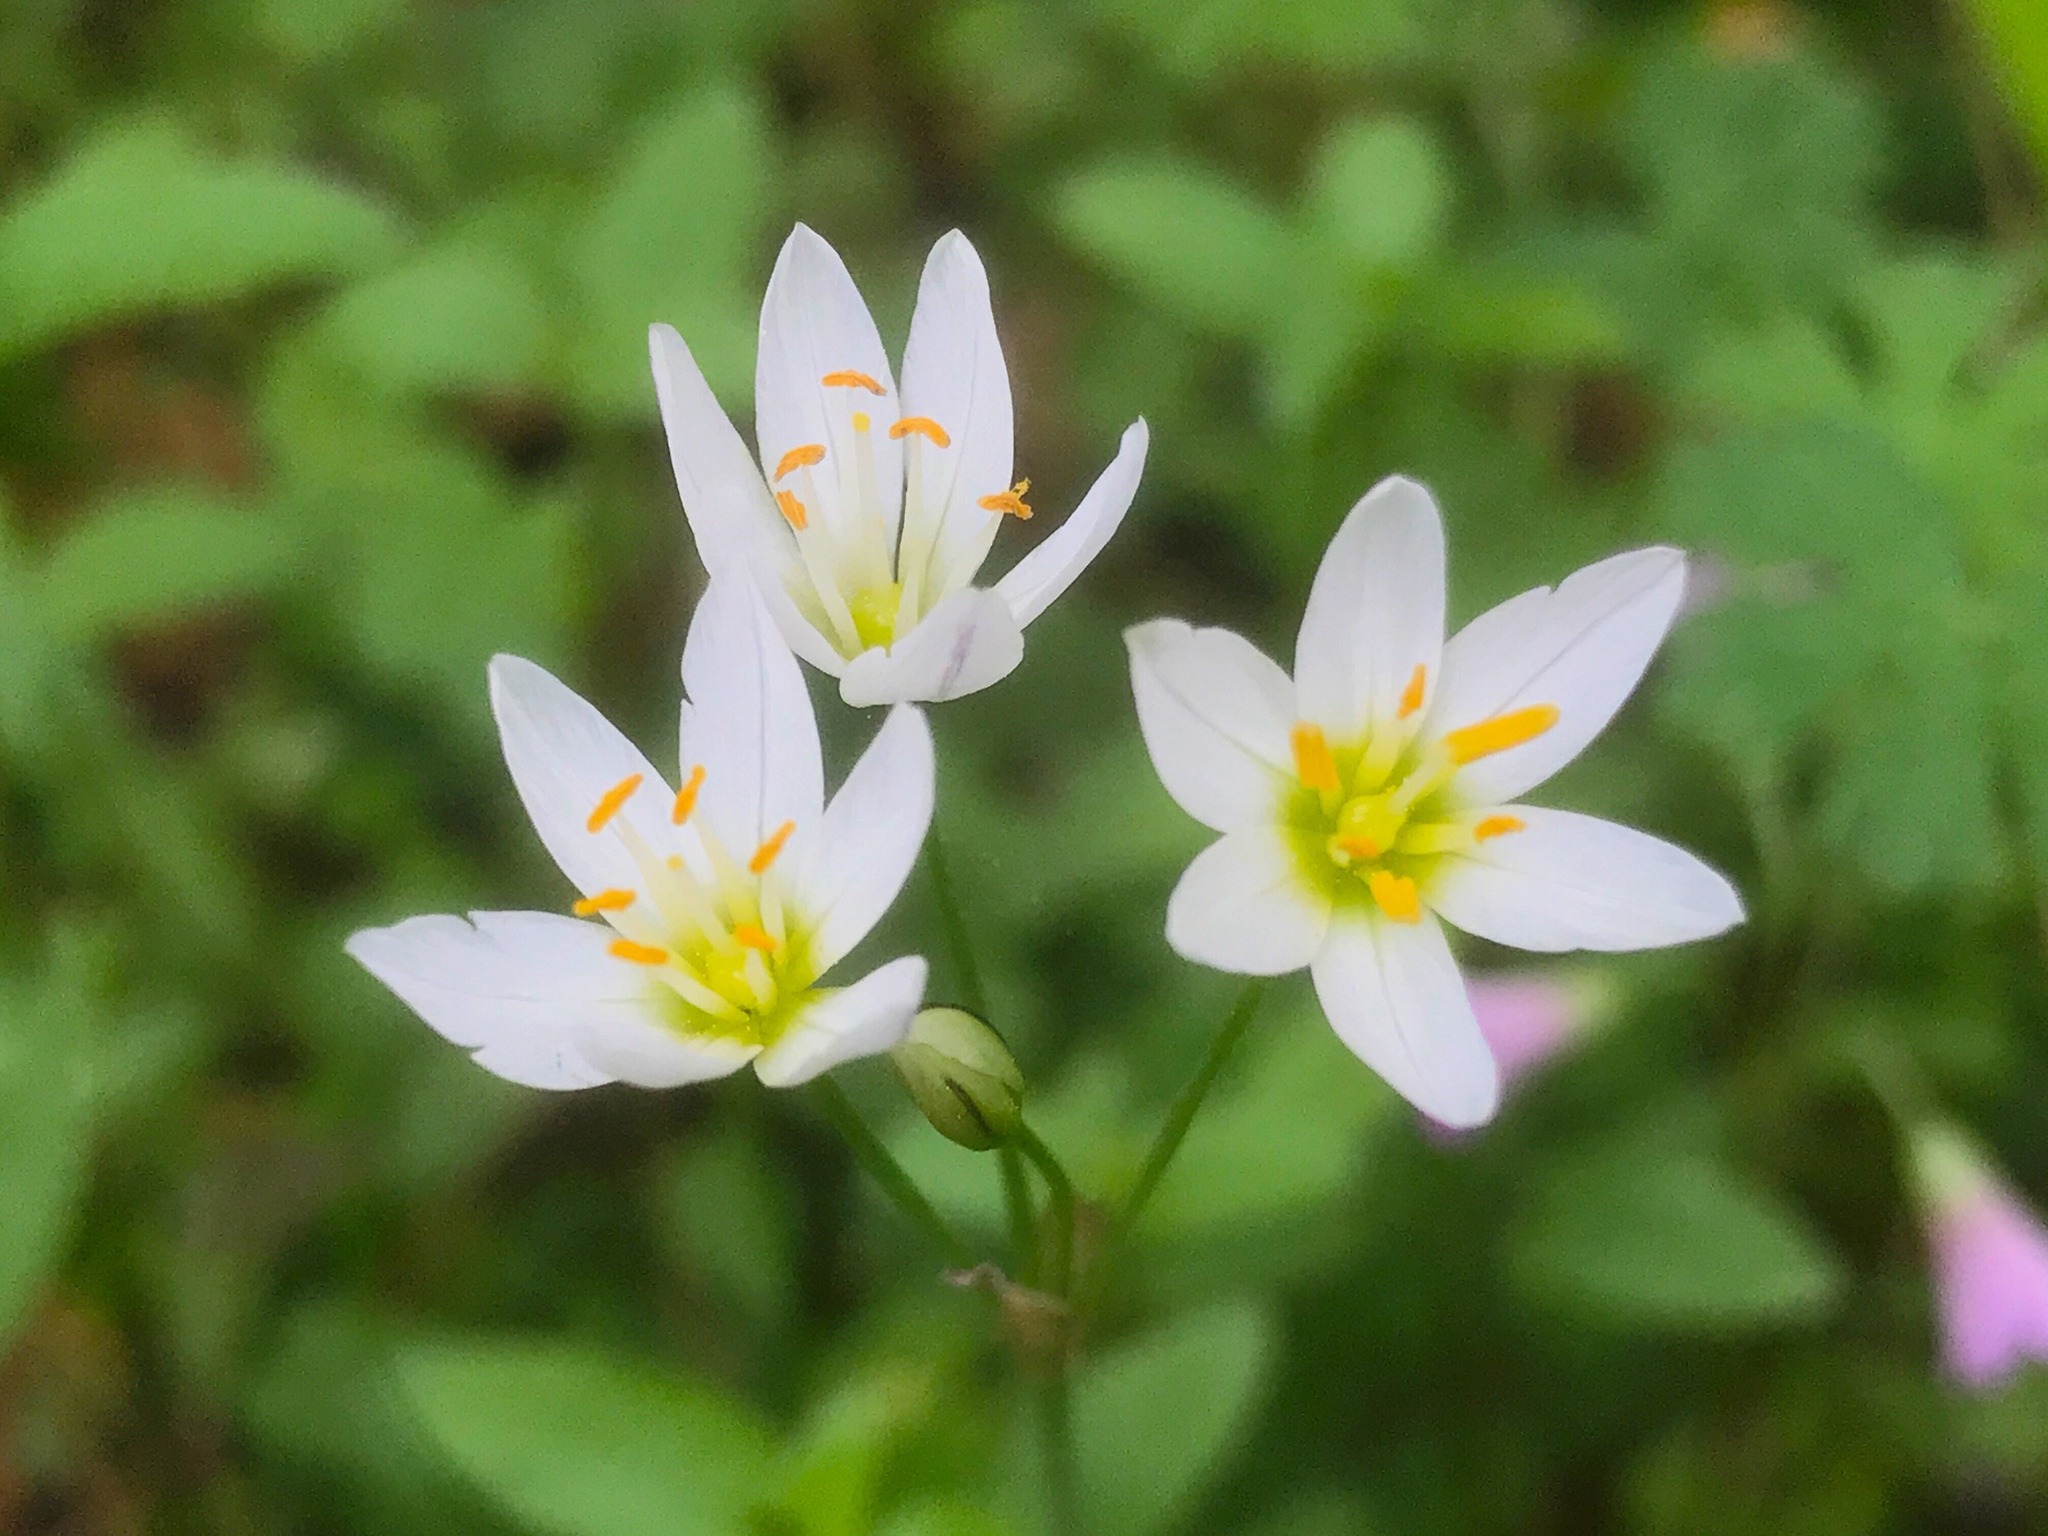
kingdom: Plantae
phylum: Tracheophyta
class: Liliopsida
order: Asparagales
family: Amaryllidaceae
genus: Nothoscordum
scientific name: Nothoscordum bivalve
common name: Crow-poison
